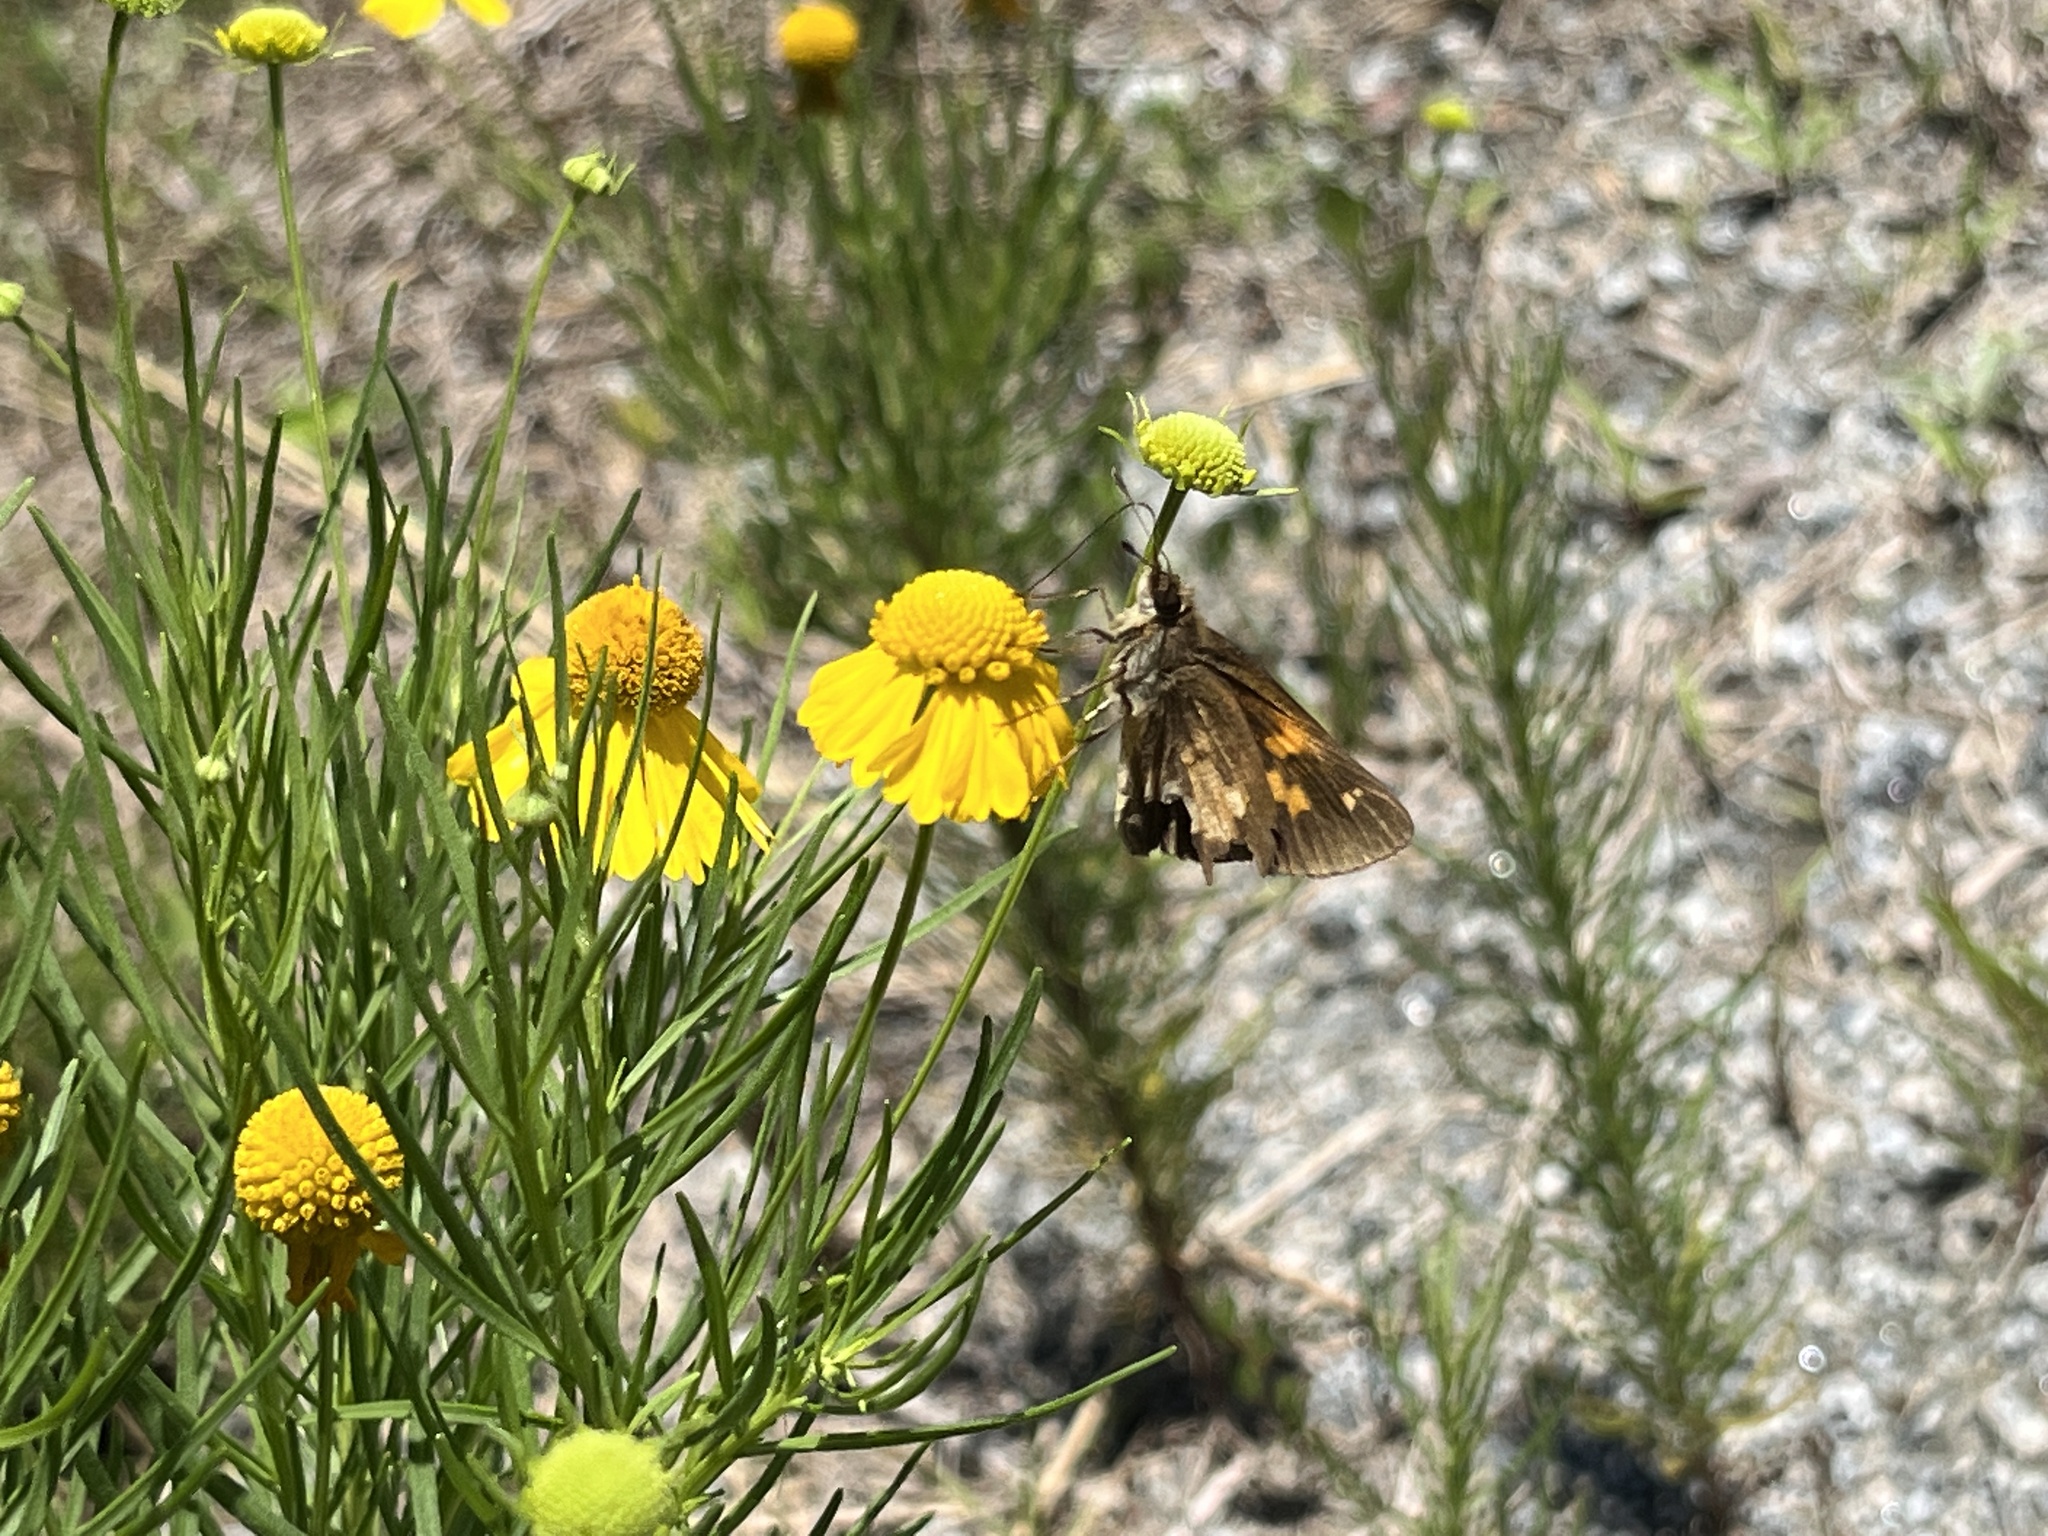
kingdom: Animalia
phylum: Arthropoda
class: Insecta
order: Lepidoptera
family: Hesperiidae
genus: Poanes
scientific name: Poanes viator
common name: Broad-winged skipper
